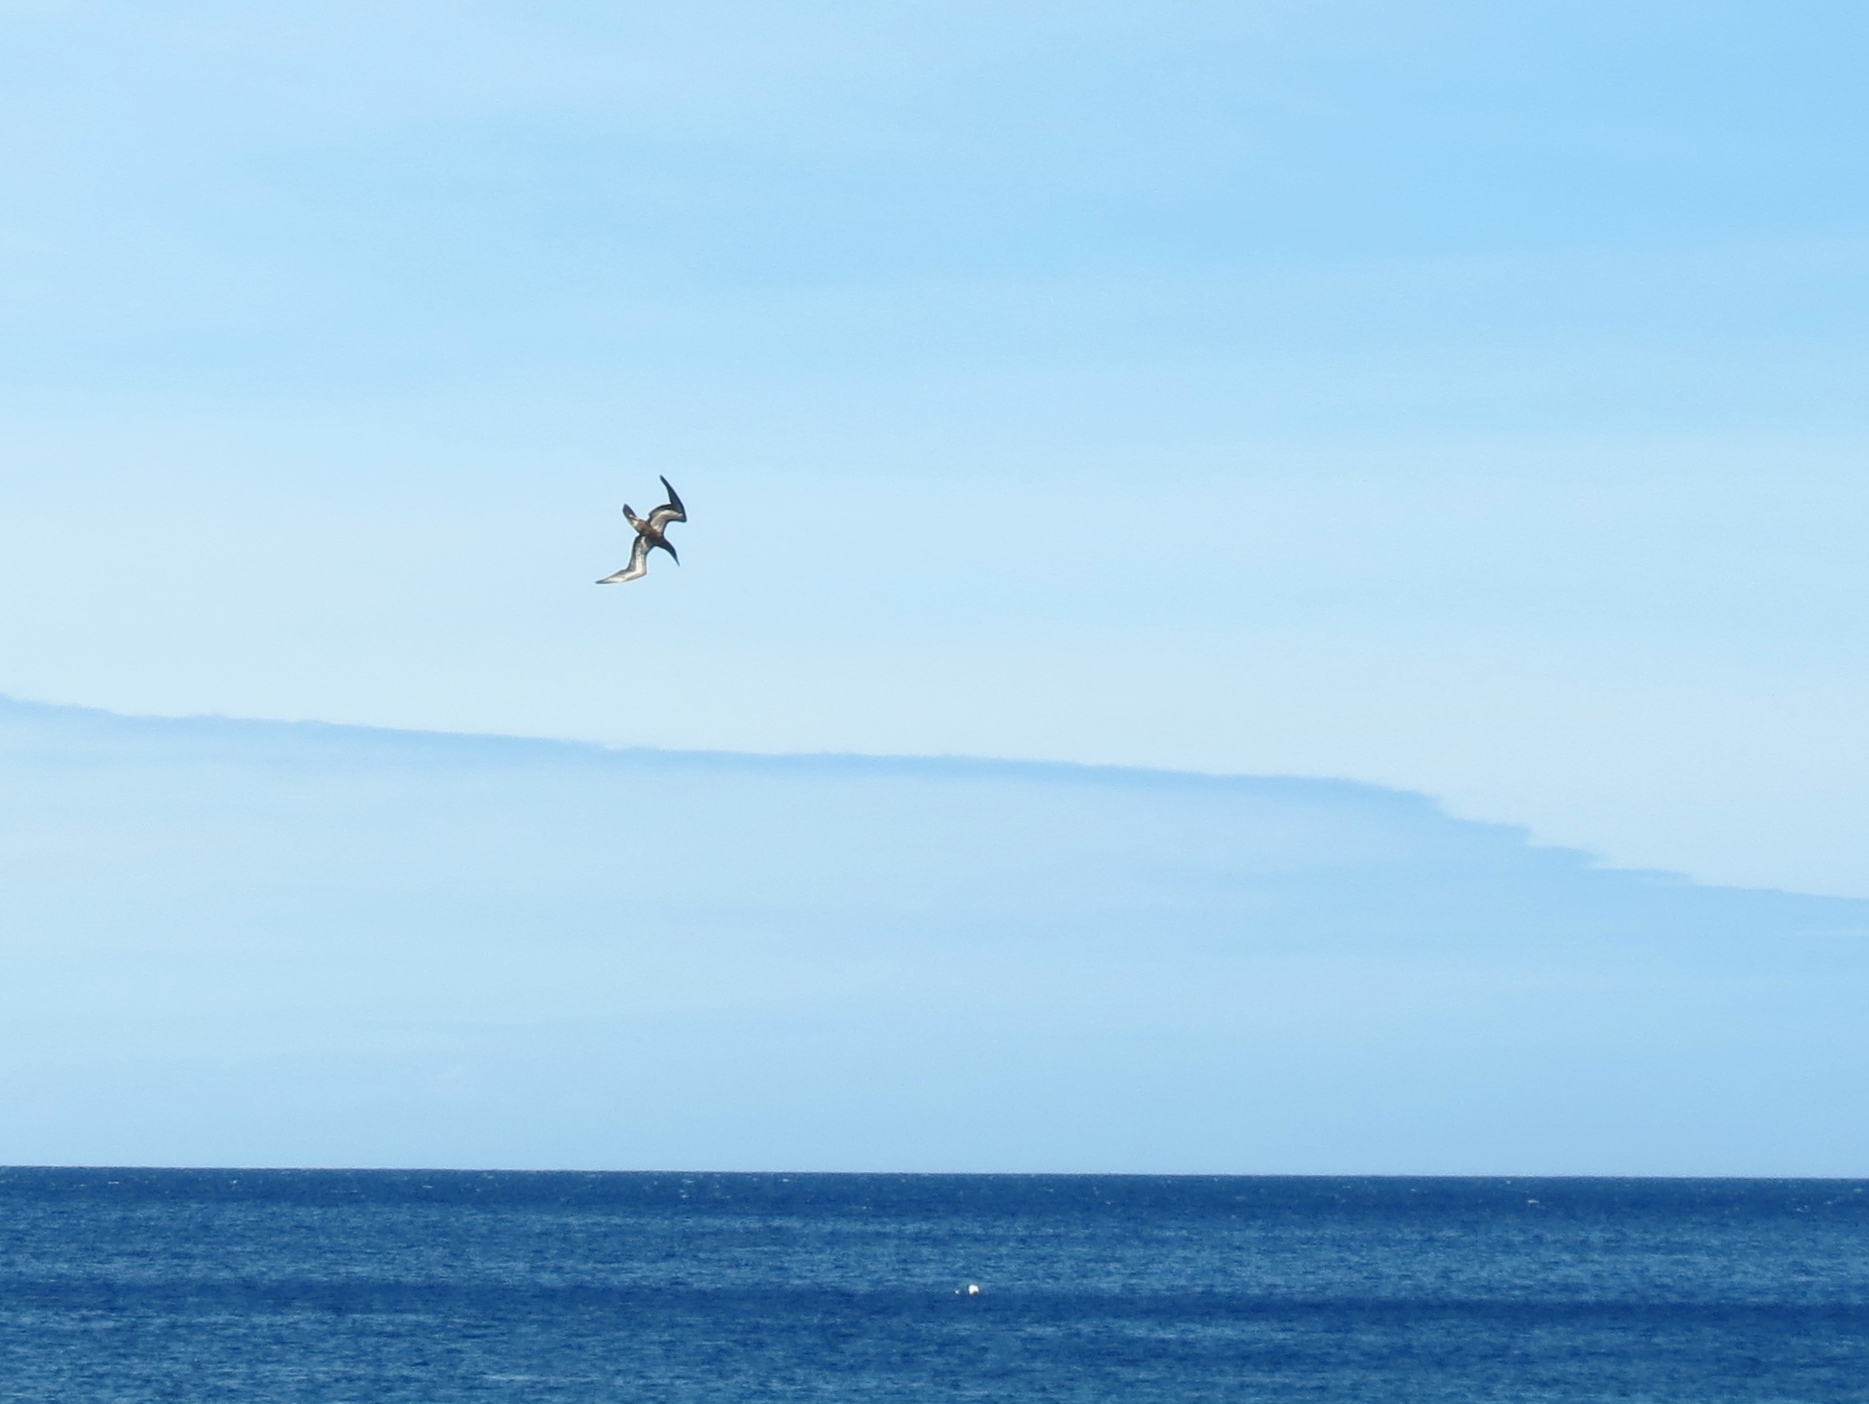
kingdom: Animalia
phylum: Chordata
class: Aves
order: Suliformes
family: Sulidae
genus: Sula
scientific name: Sula leucogaster
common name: Brown booby
